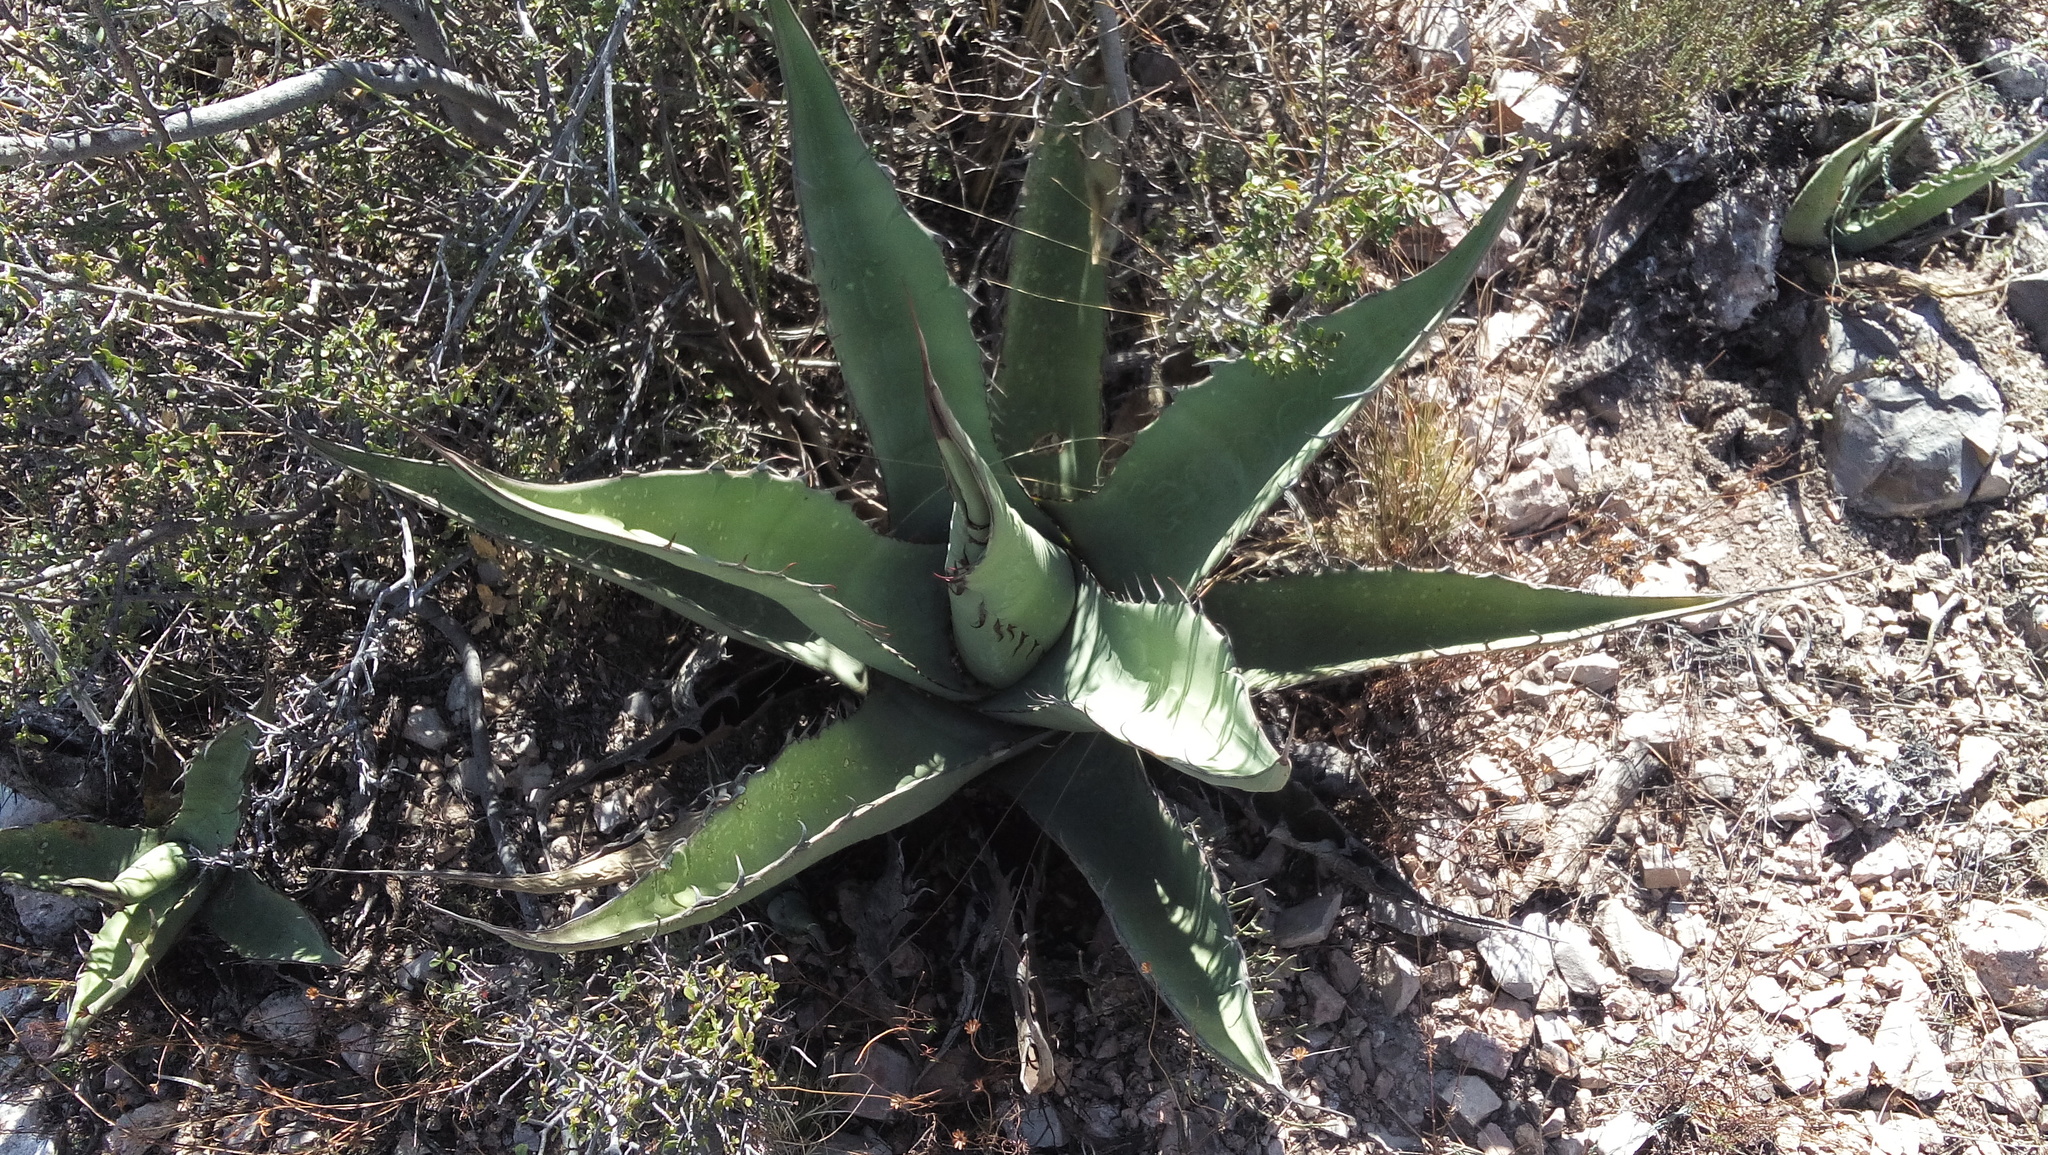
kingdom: Plantae
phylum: Tracheophyta
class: Liliopsida
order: Asparagales
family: Asparagaceae
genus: Agave
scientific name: Agave asperrima
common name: Rough agave
